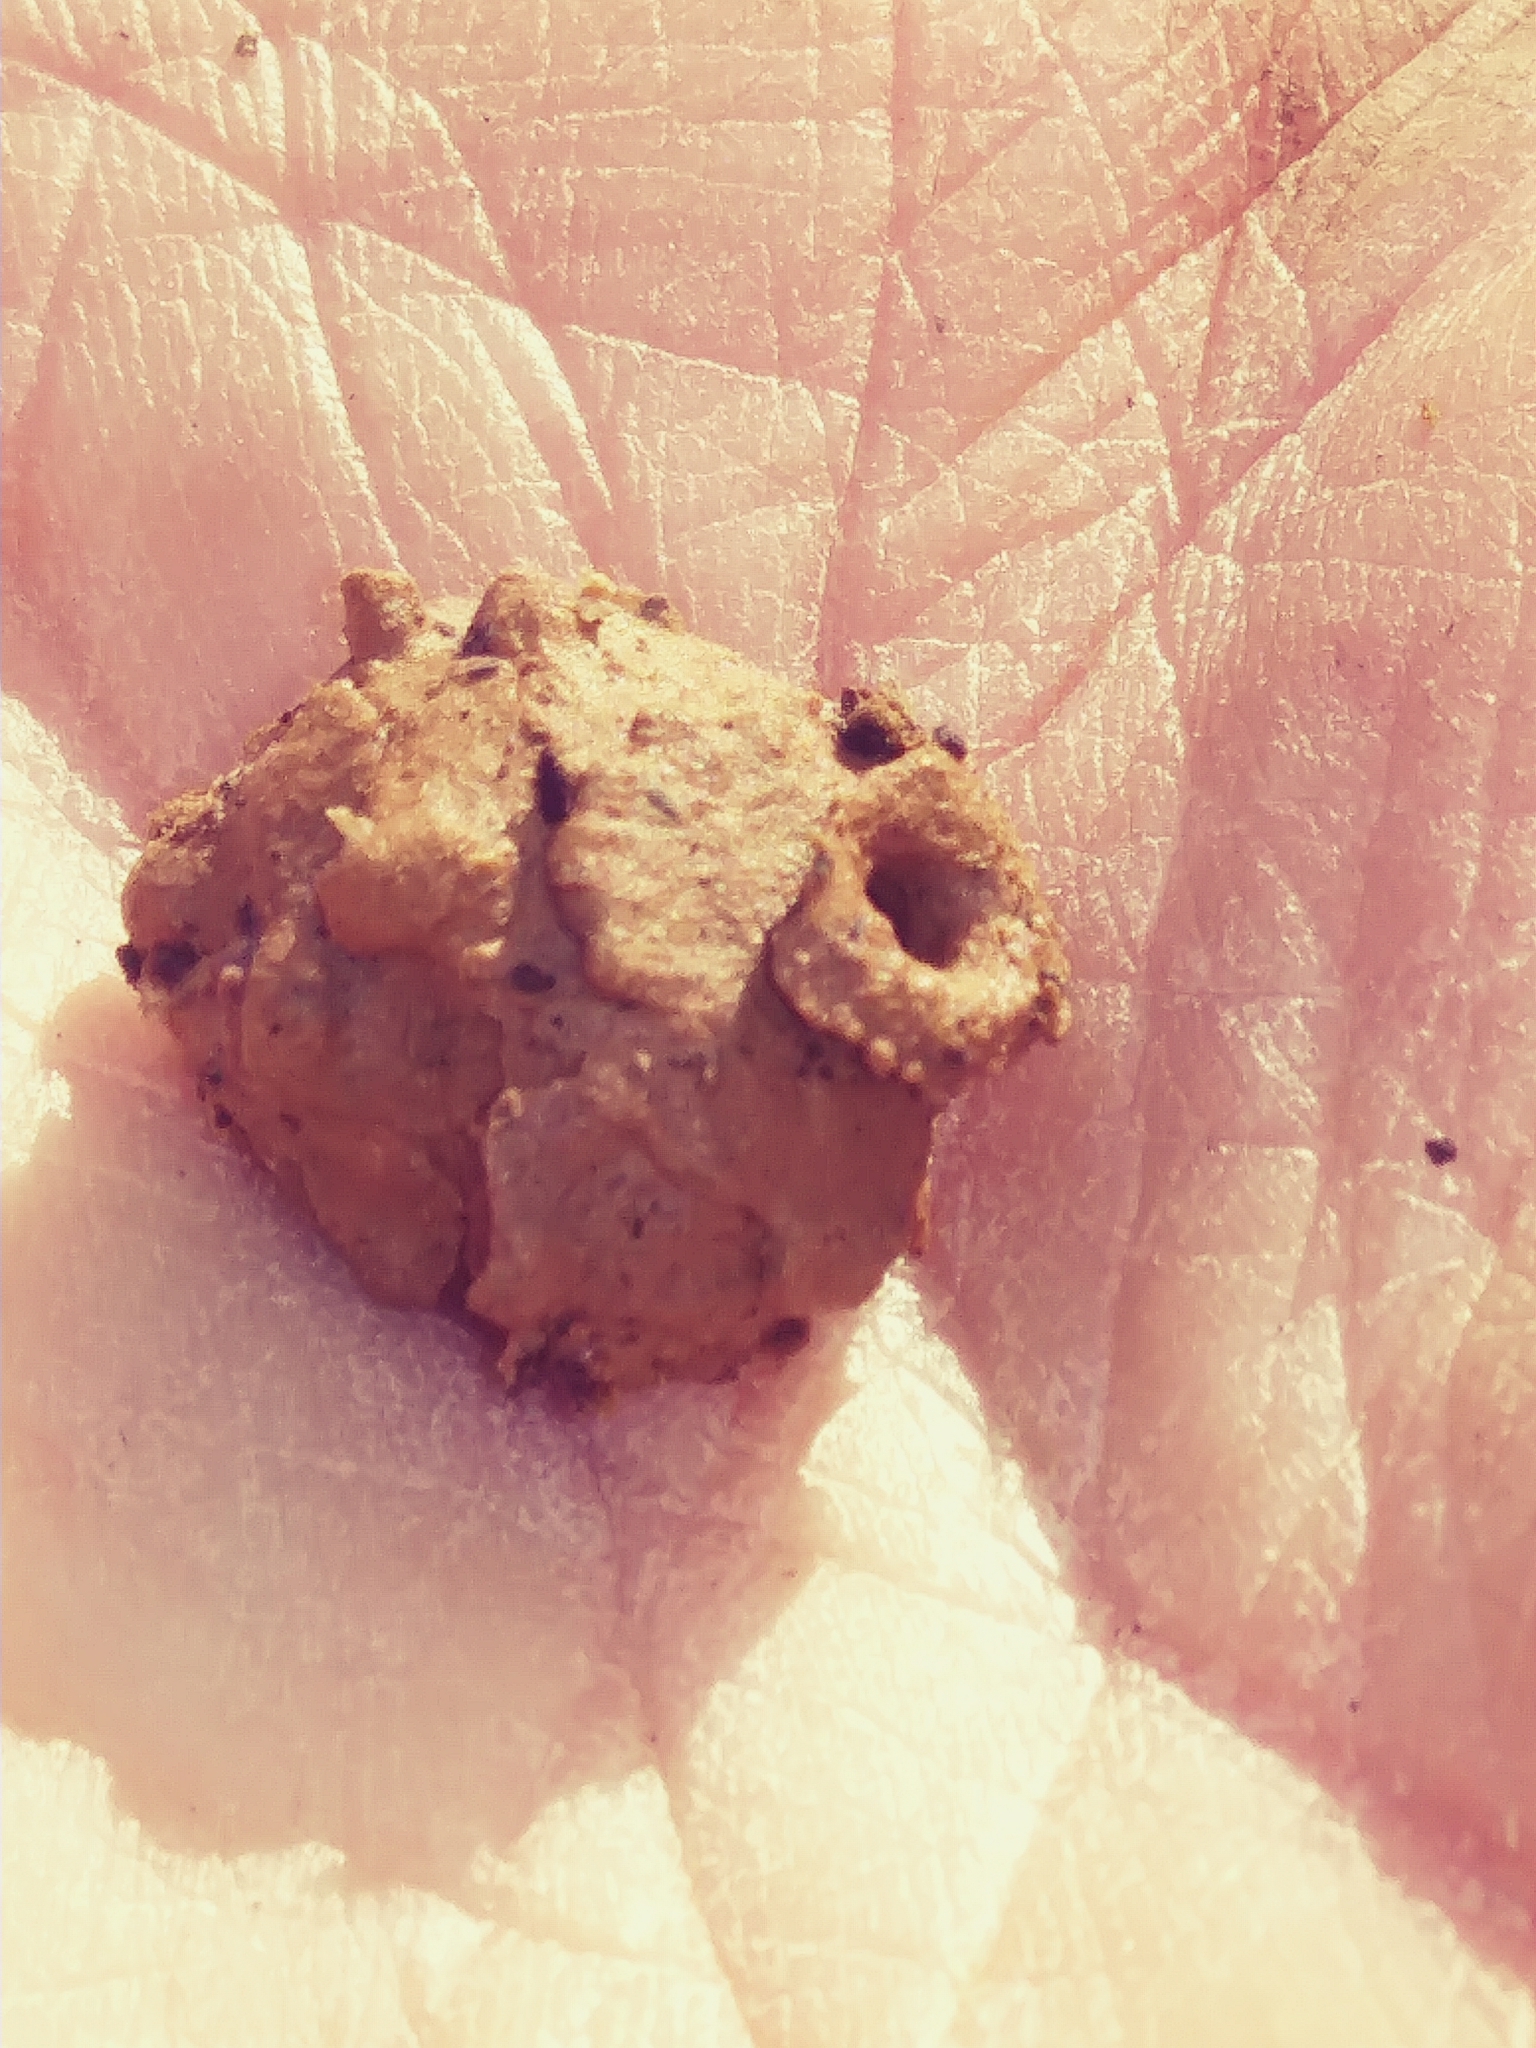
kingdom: Animalia
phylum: Arthropoda
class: Insecta
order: Hymenoptera
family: Vespidae
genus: Eumenes
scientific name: Eumenes
